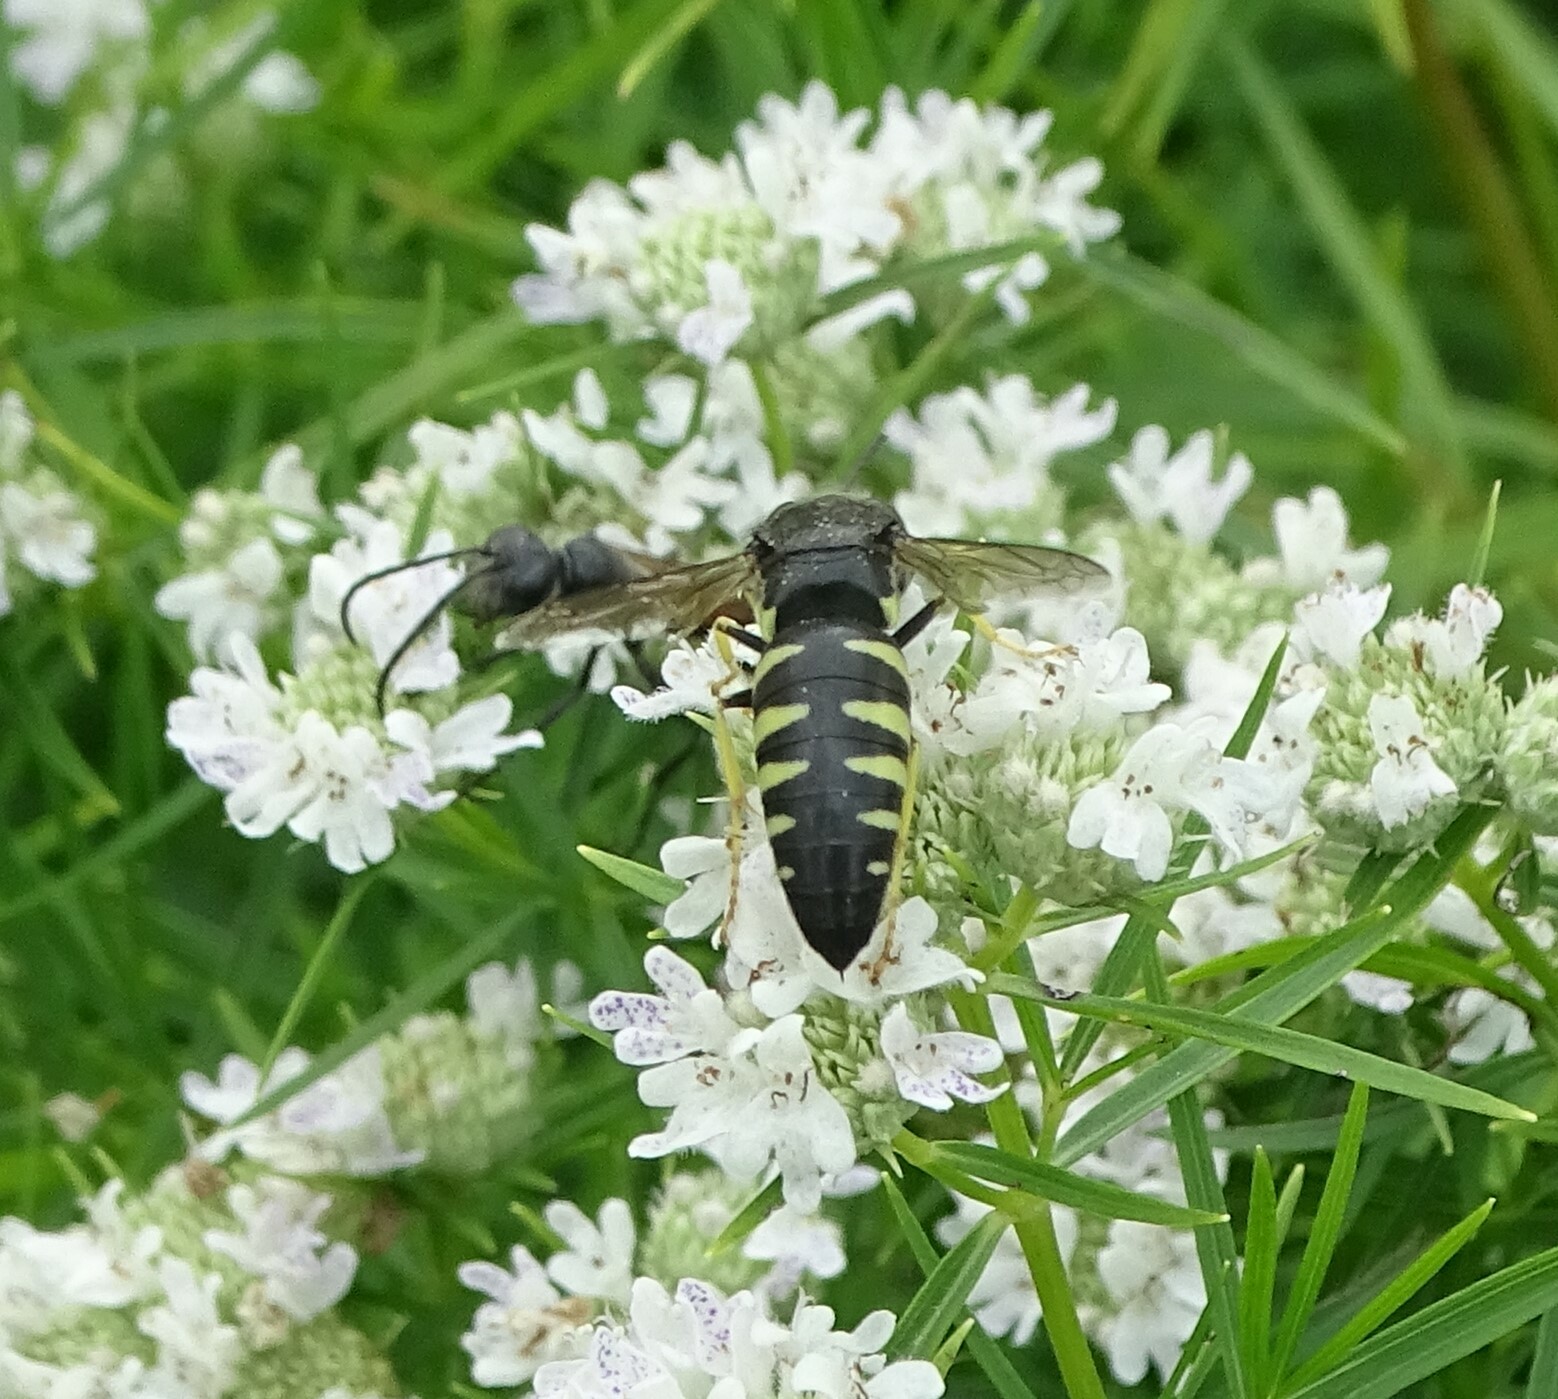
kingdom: Animalia
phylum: Arthropoda
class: Insecta
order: Hymenoptera
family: Crabronidae
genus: Bicyrtes
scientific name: Bicyrtes quadrifasciatus
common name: Four-banded stink bug hunter wasp
